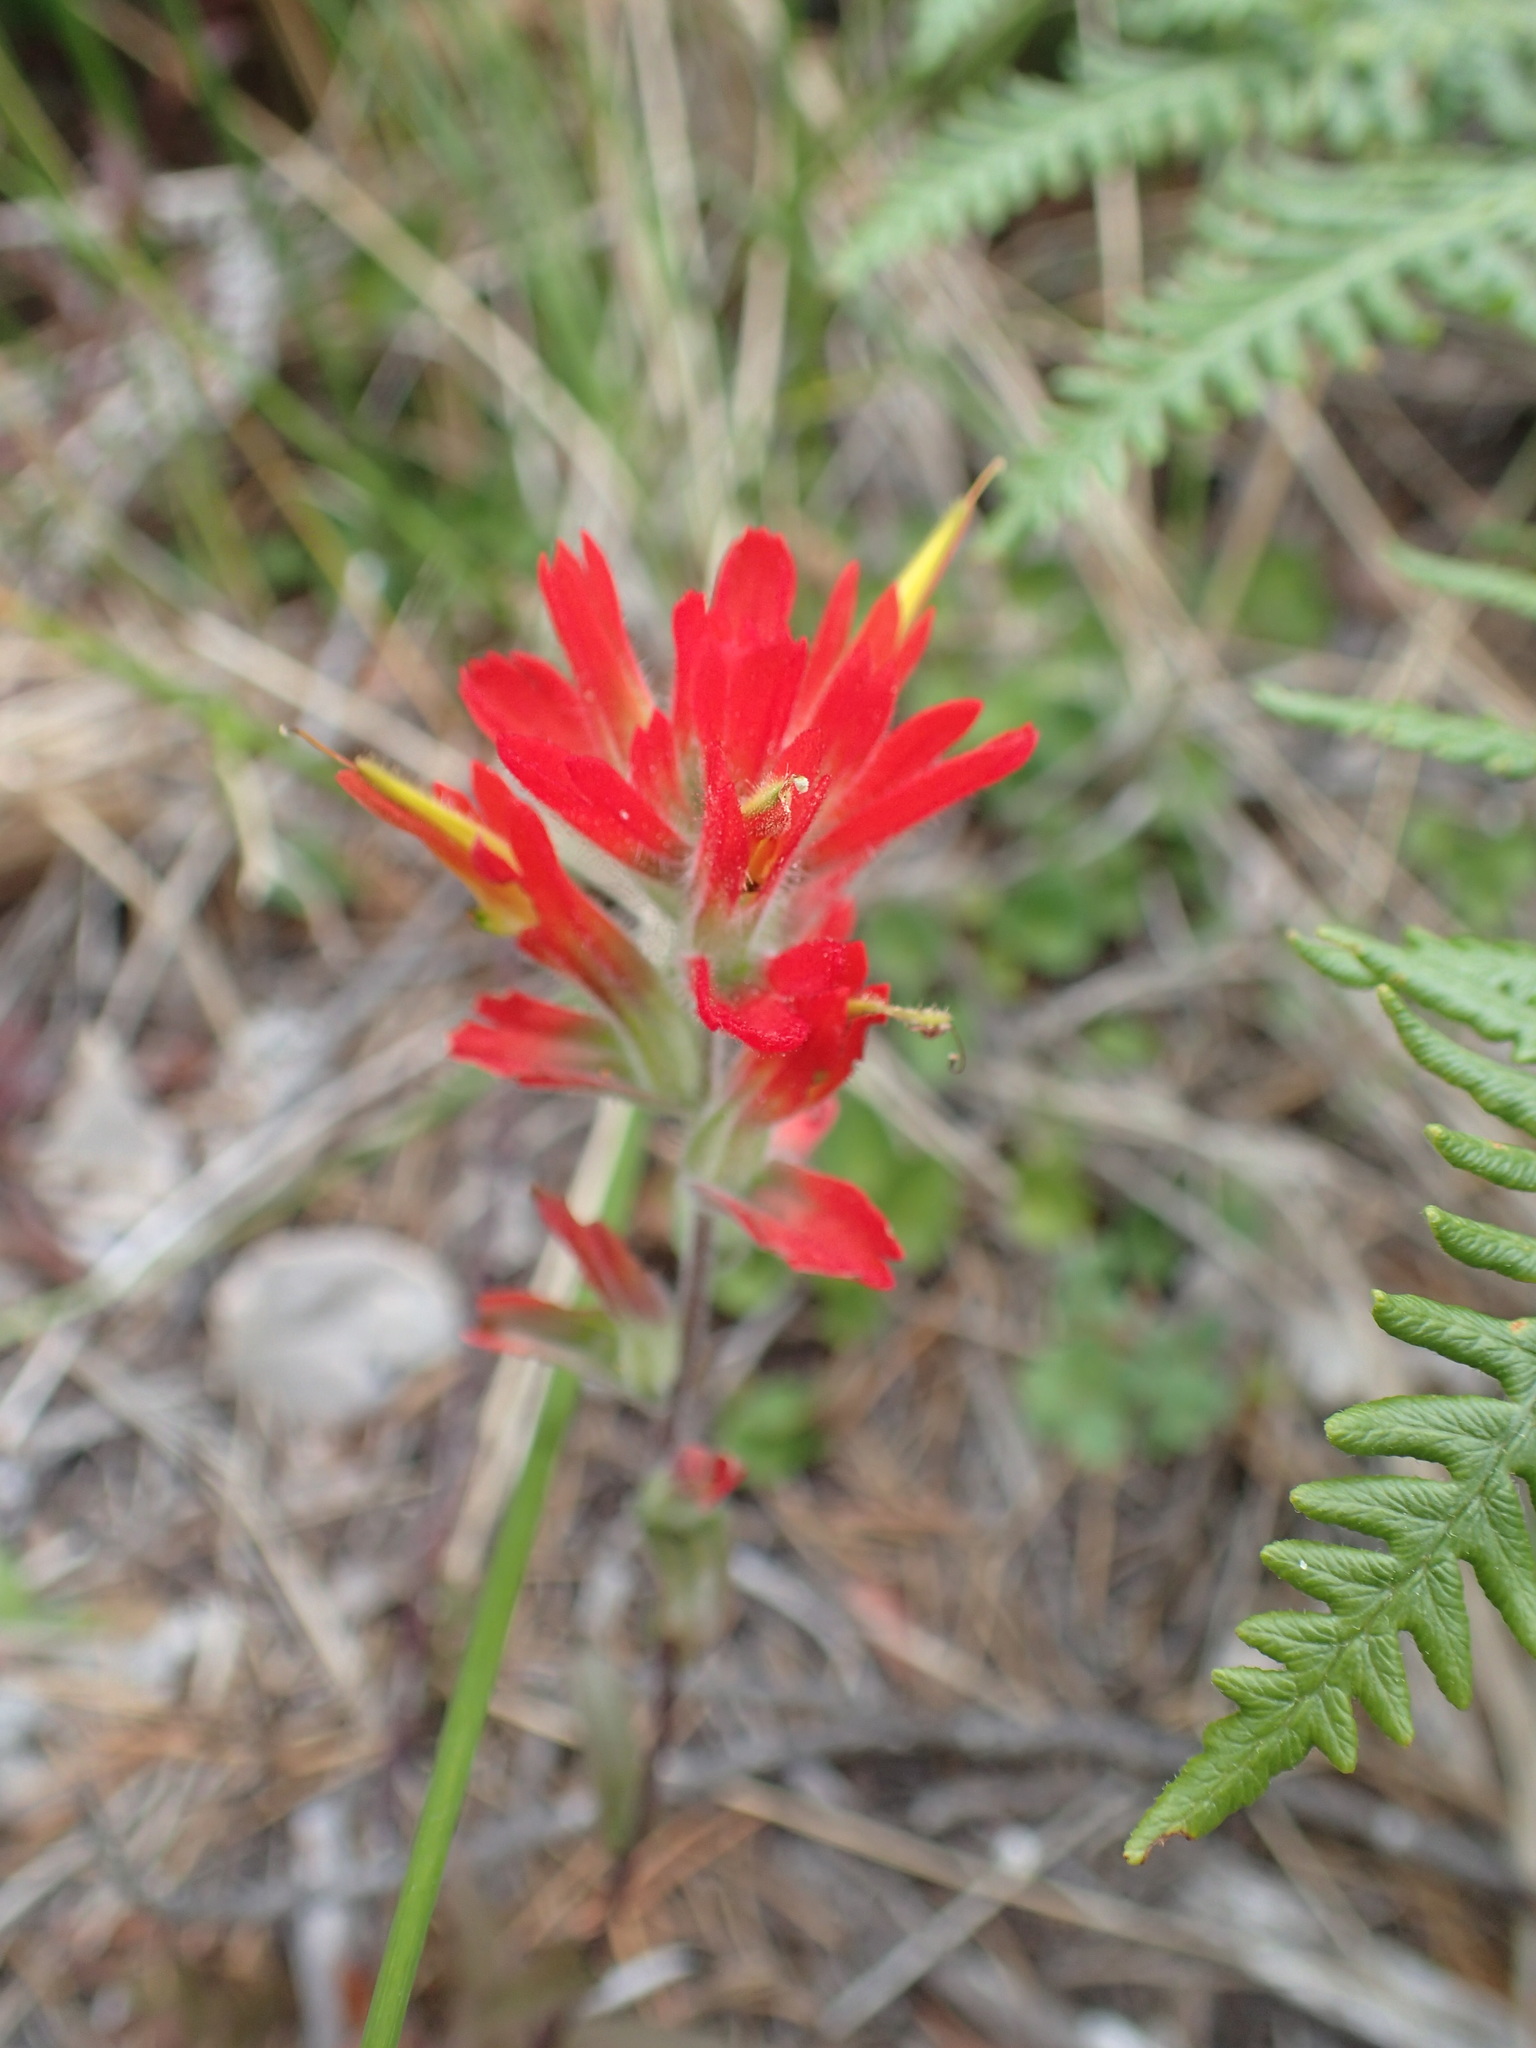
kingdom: Plantae
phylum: Tracheophyta
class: Magnoliopsida
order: Lamiales
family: Orobanchaceae
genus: Castilleja
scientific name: Castilleja litoralis
